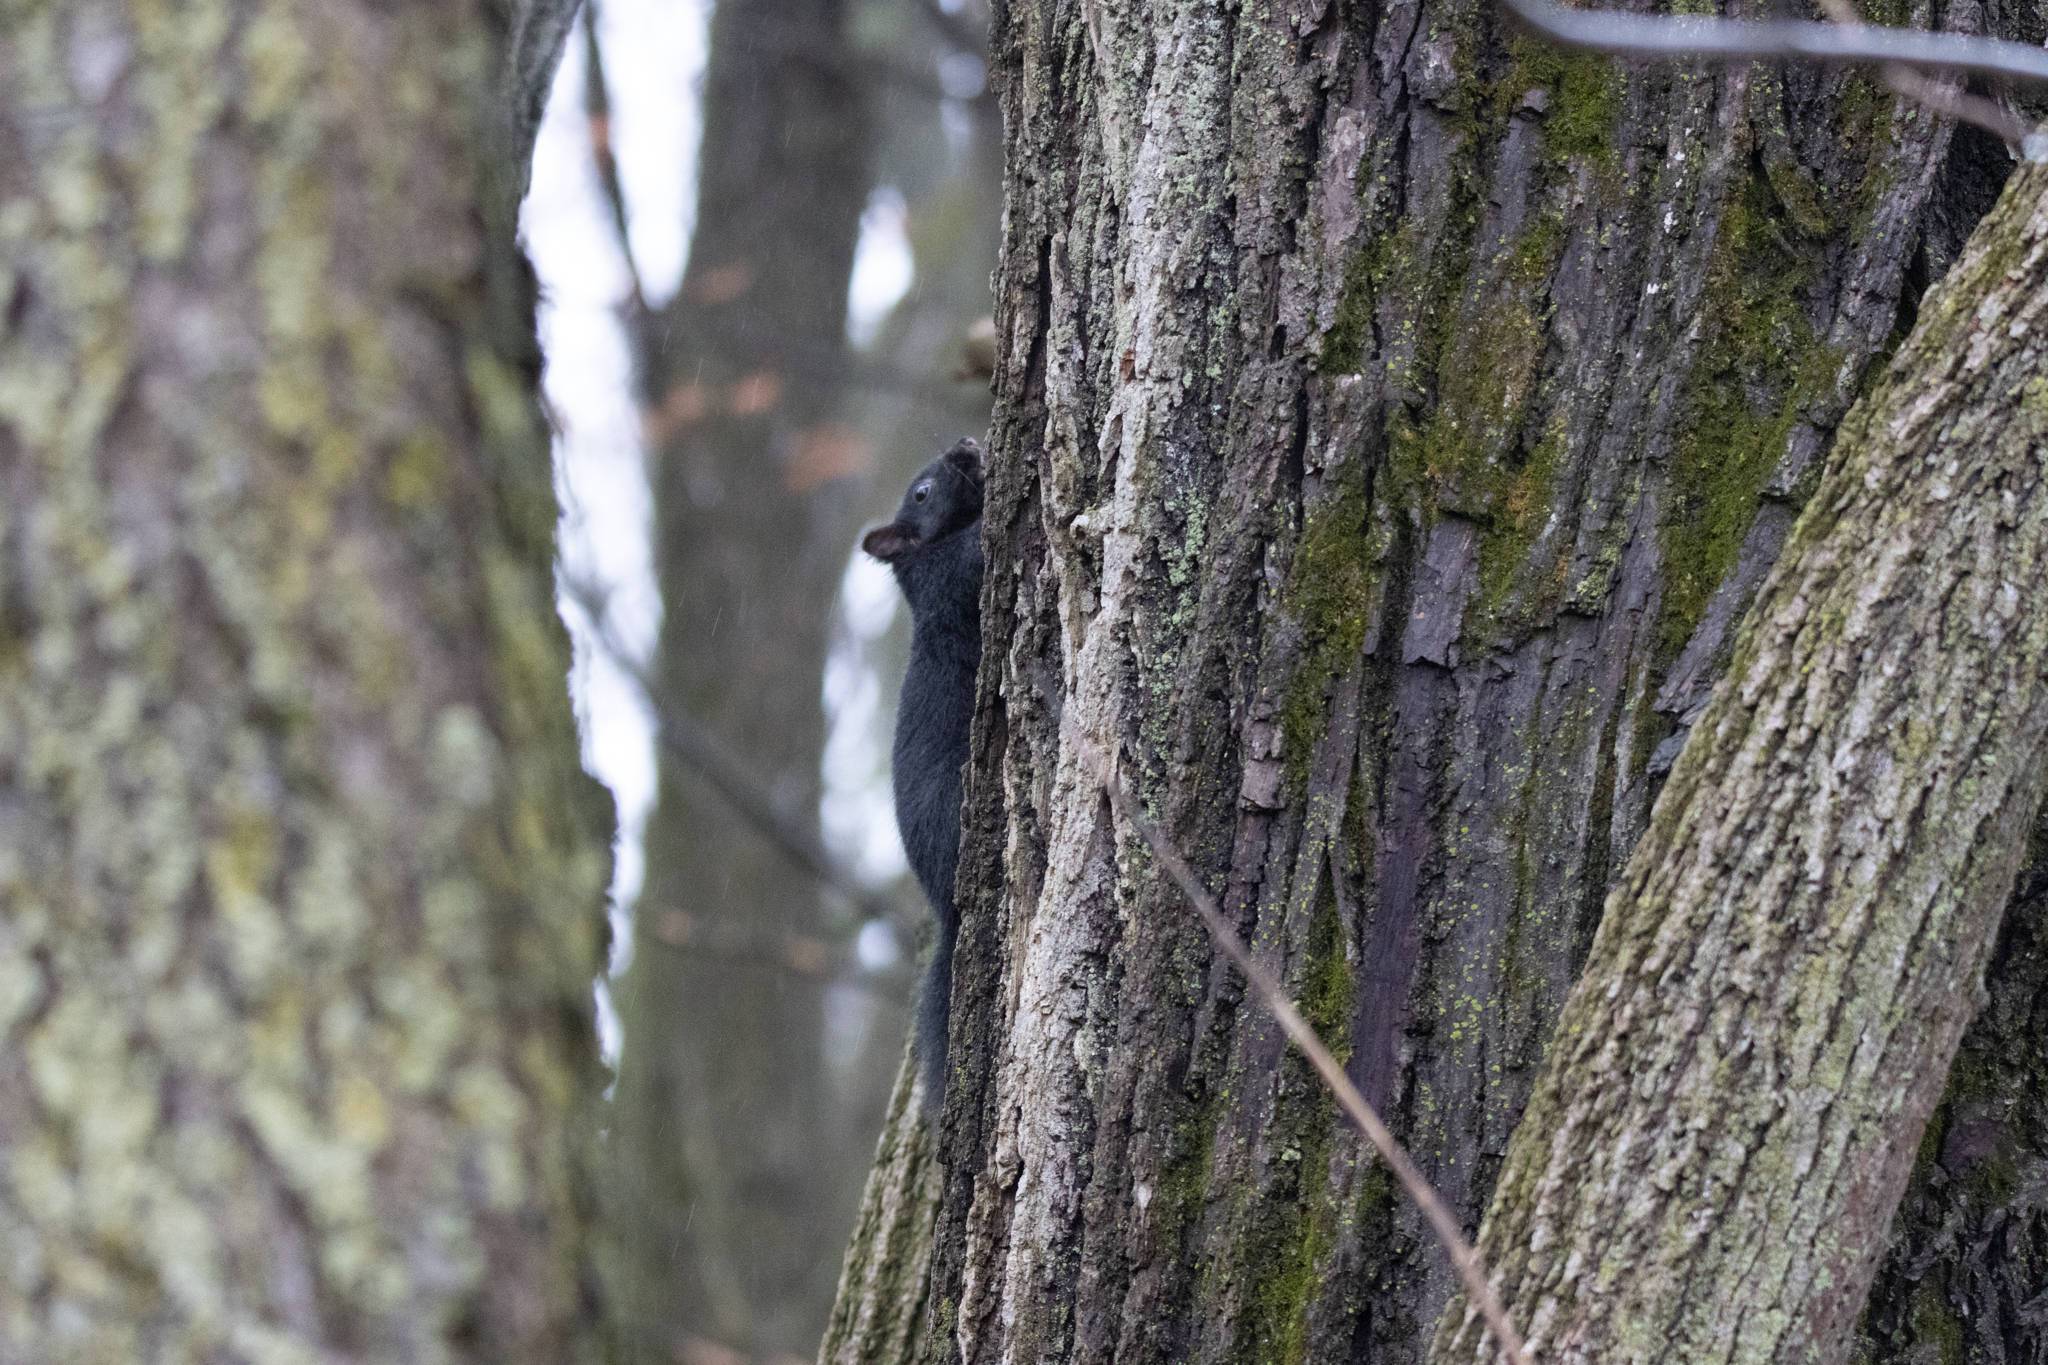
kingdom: Animalia
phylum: Chordata
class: Mammalia
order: Rodentia
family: Sciuridae
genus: Sciurus
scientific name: Sciurus carolinensis
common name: Eastern gray squirrel
